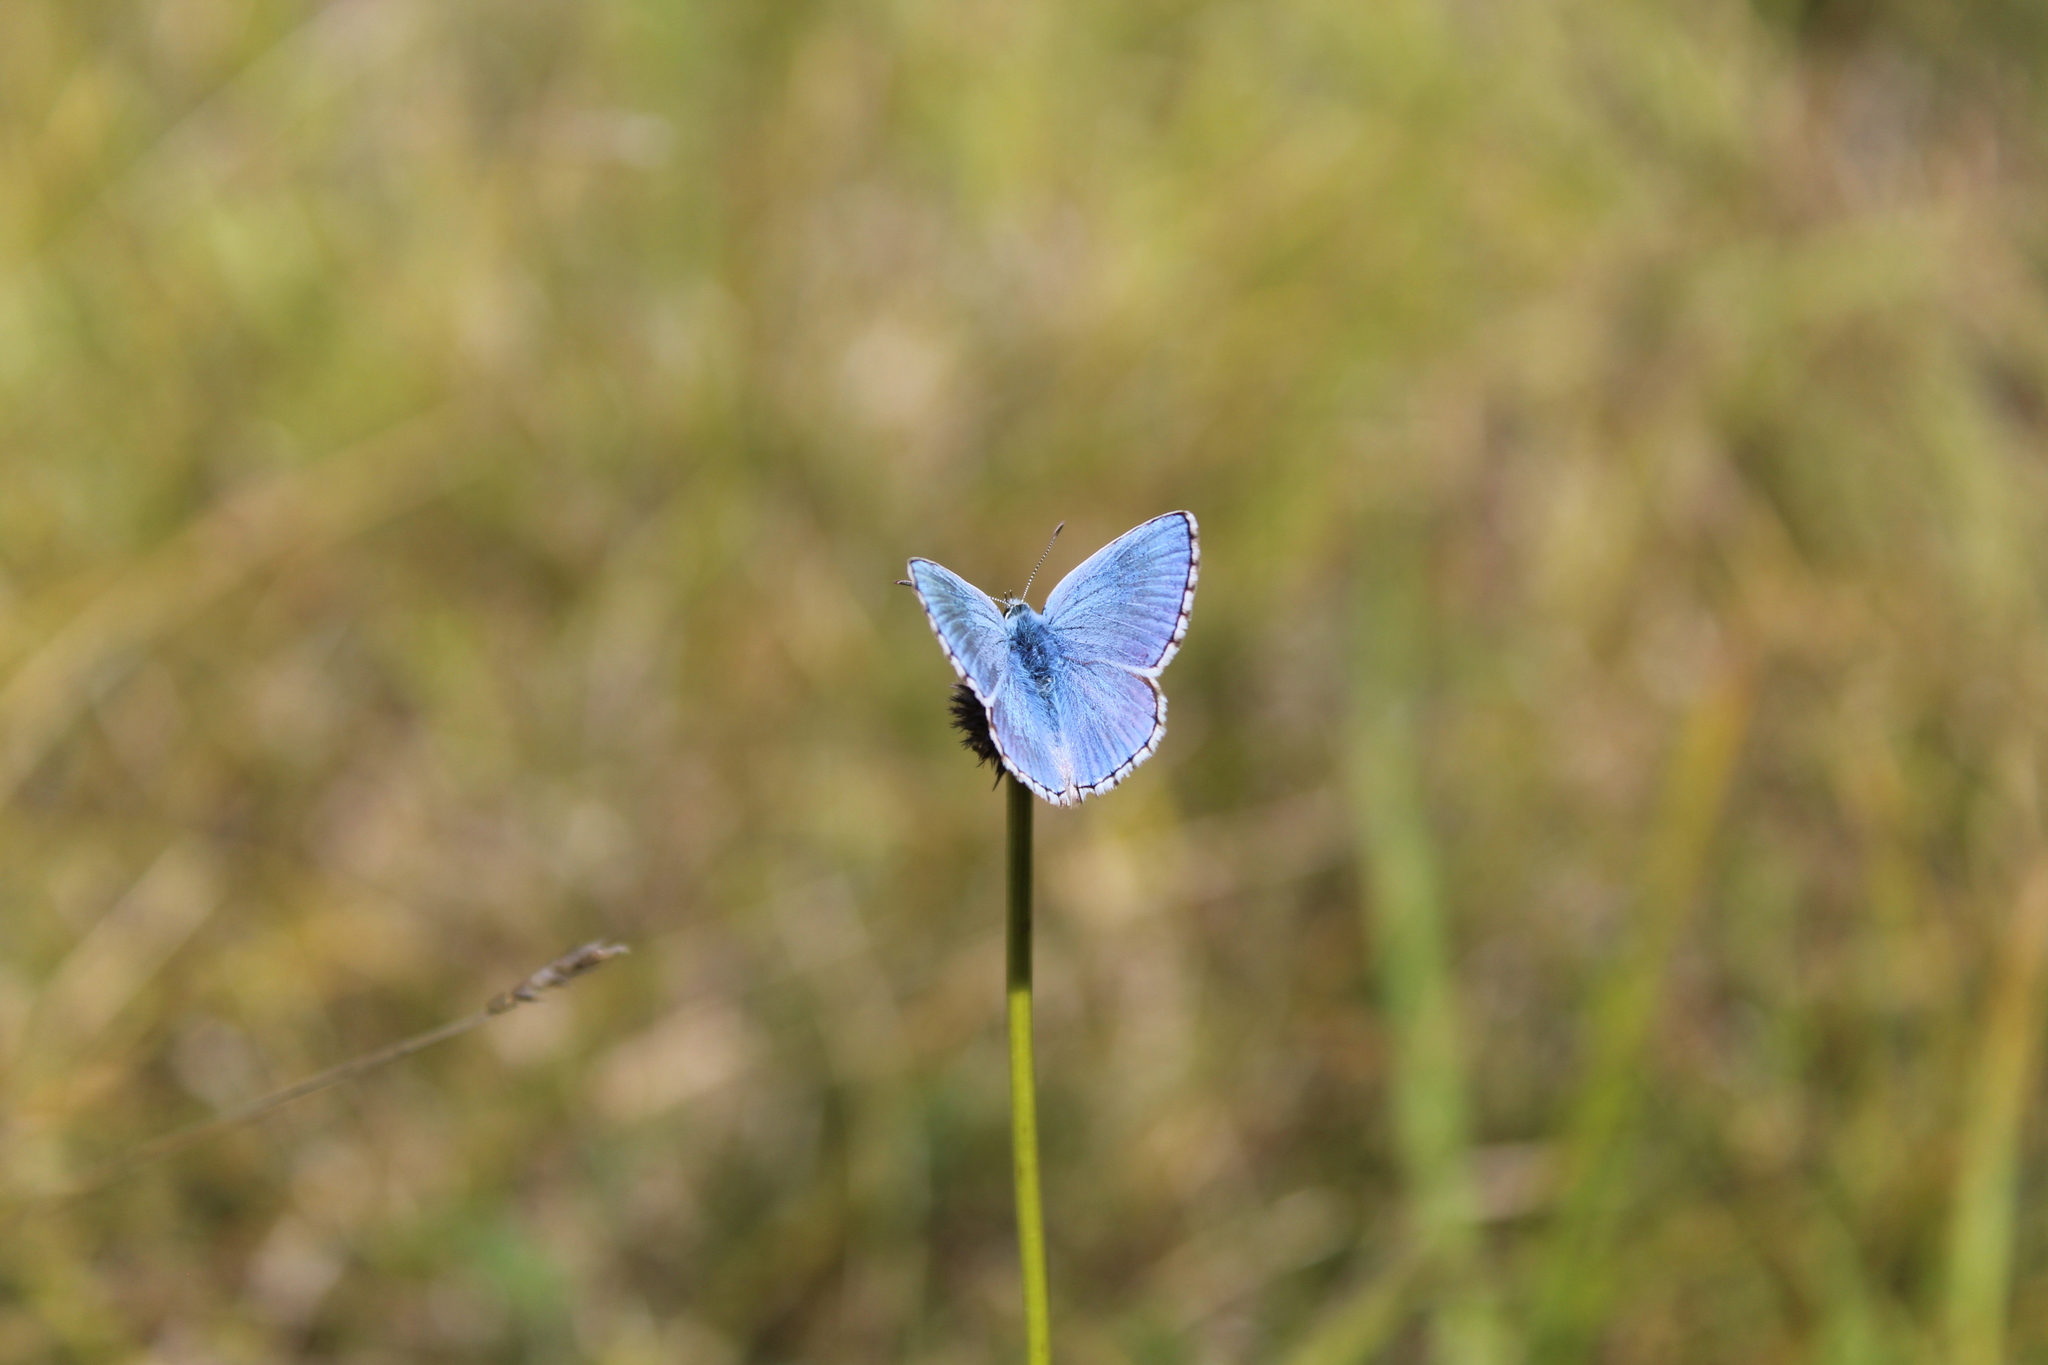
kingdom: Animalia
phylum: Arthropoda
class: Insecta
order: Lepidoptera
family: Lycaenidae
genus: Lysandra
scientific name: Lysandra bellargus
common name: Adonis blue
